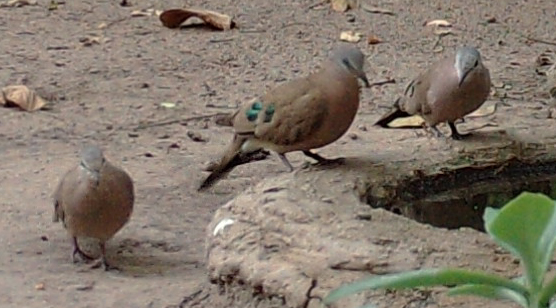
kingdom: Animalia
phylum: Chordata
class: Aves
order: Columbiformes
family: Columbidae
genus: Turtur
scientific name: Turtur chalcospilos
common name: Emerald-spotted wood dove
